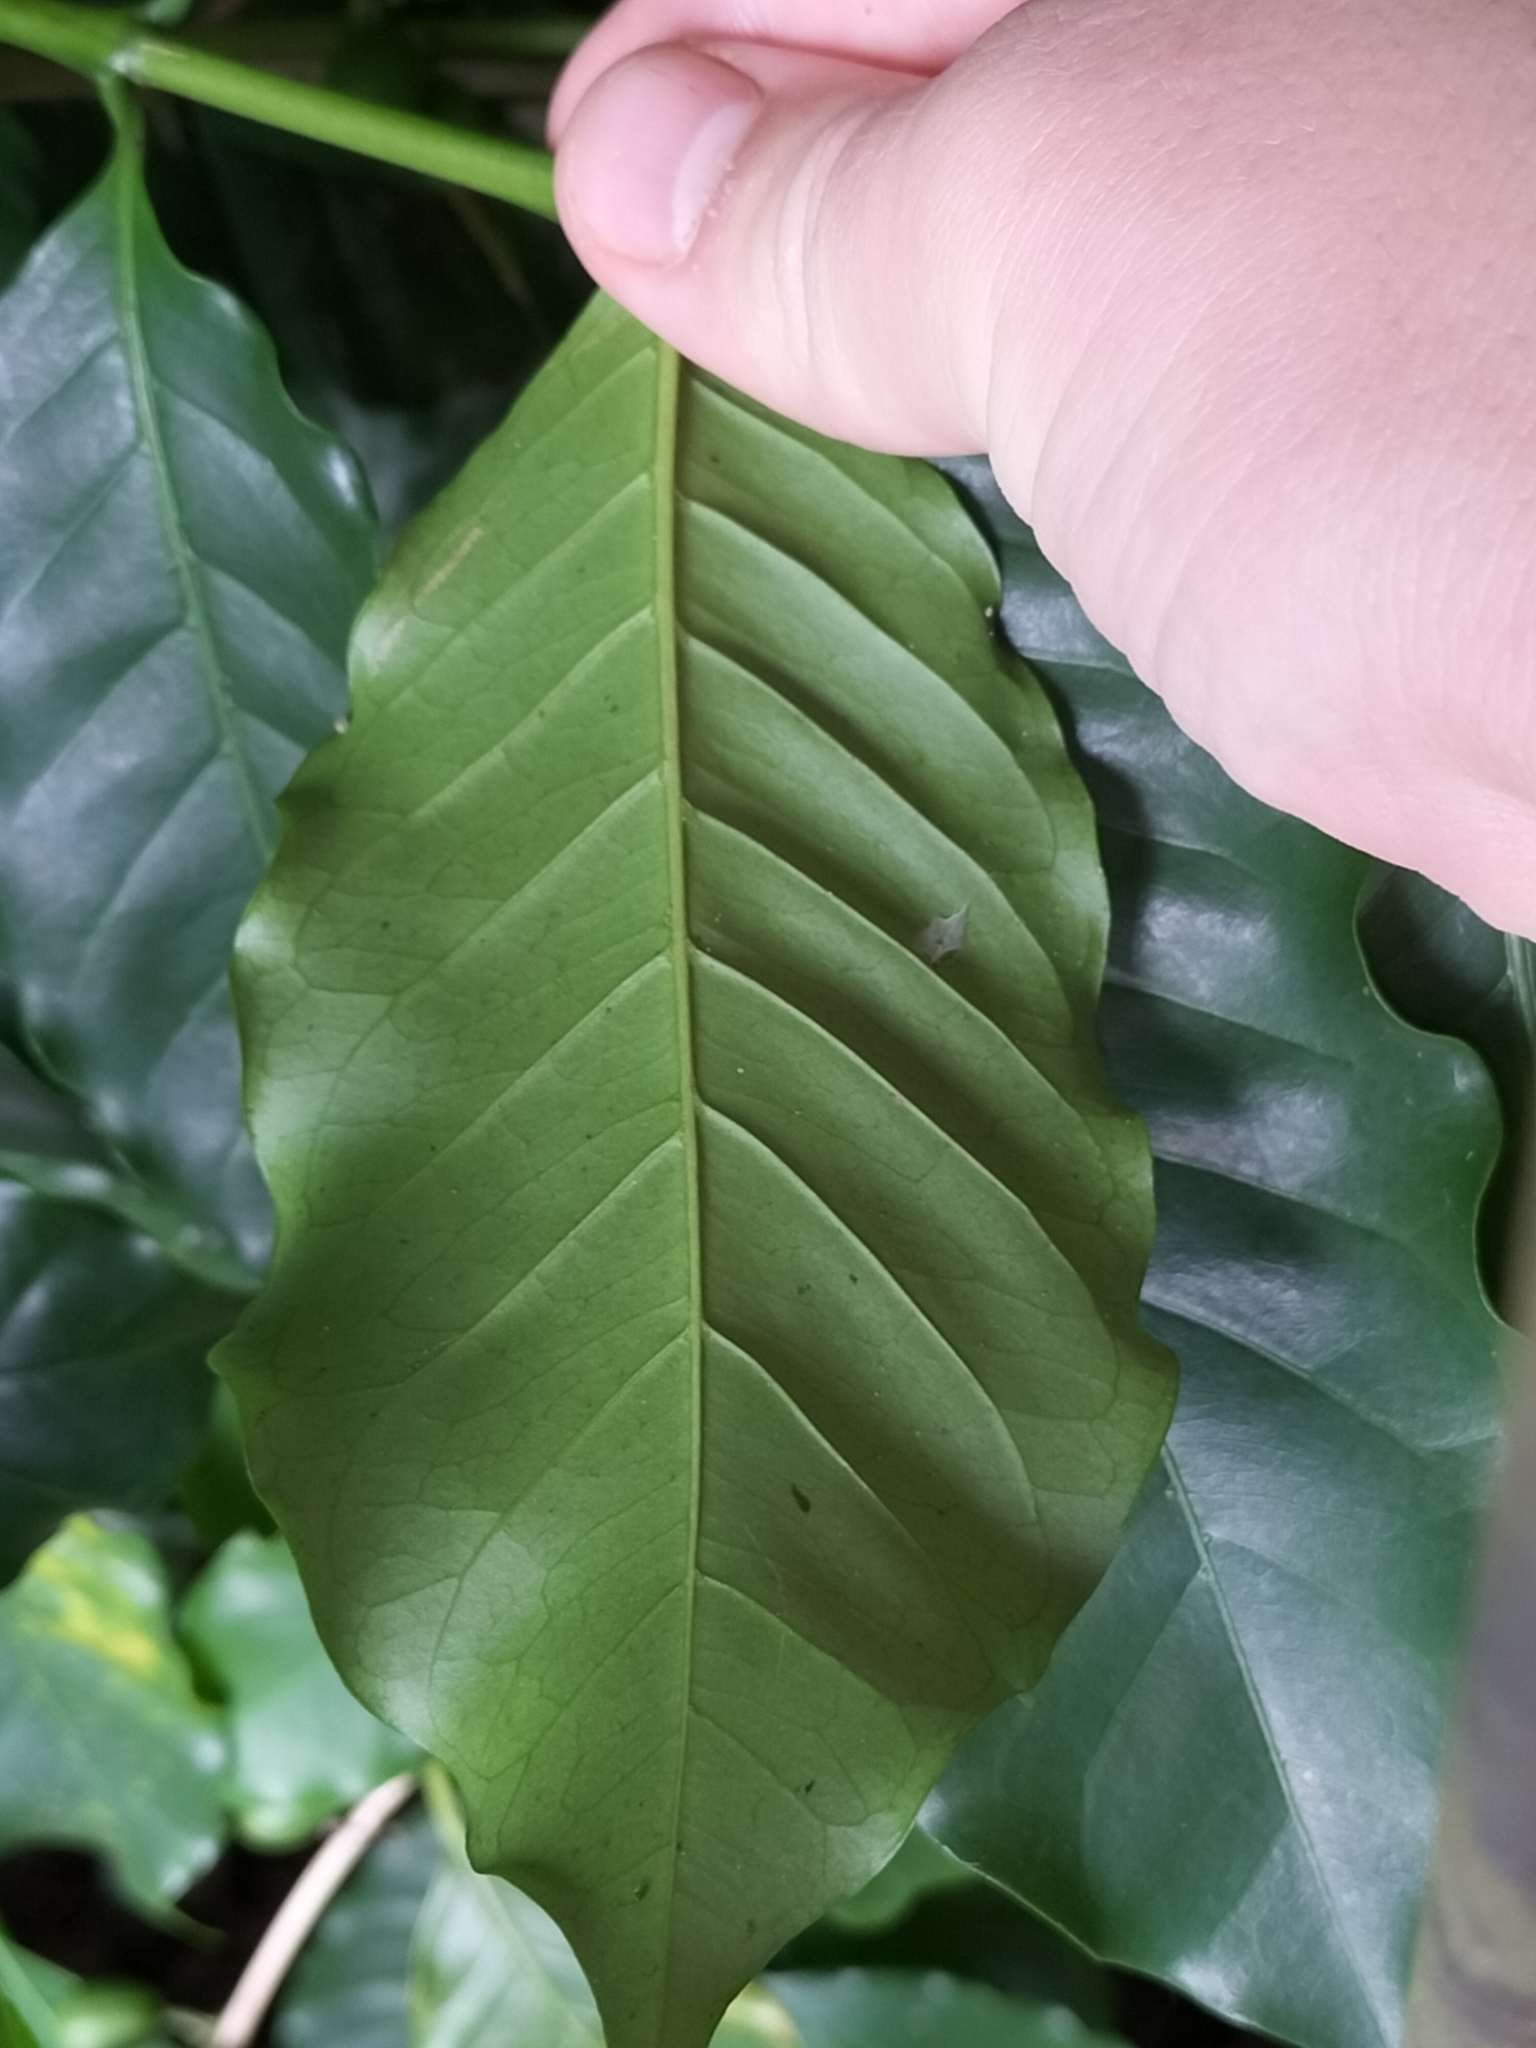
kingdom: Plantae
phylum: Tracheophyta
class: Magnoliopsida
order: Gentianales
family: Rubiaceae
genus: Coffea
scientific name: Coffea arabica
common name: Coffee
